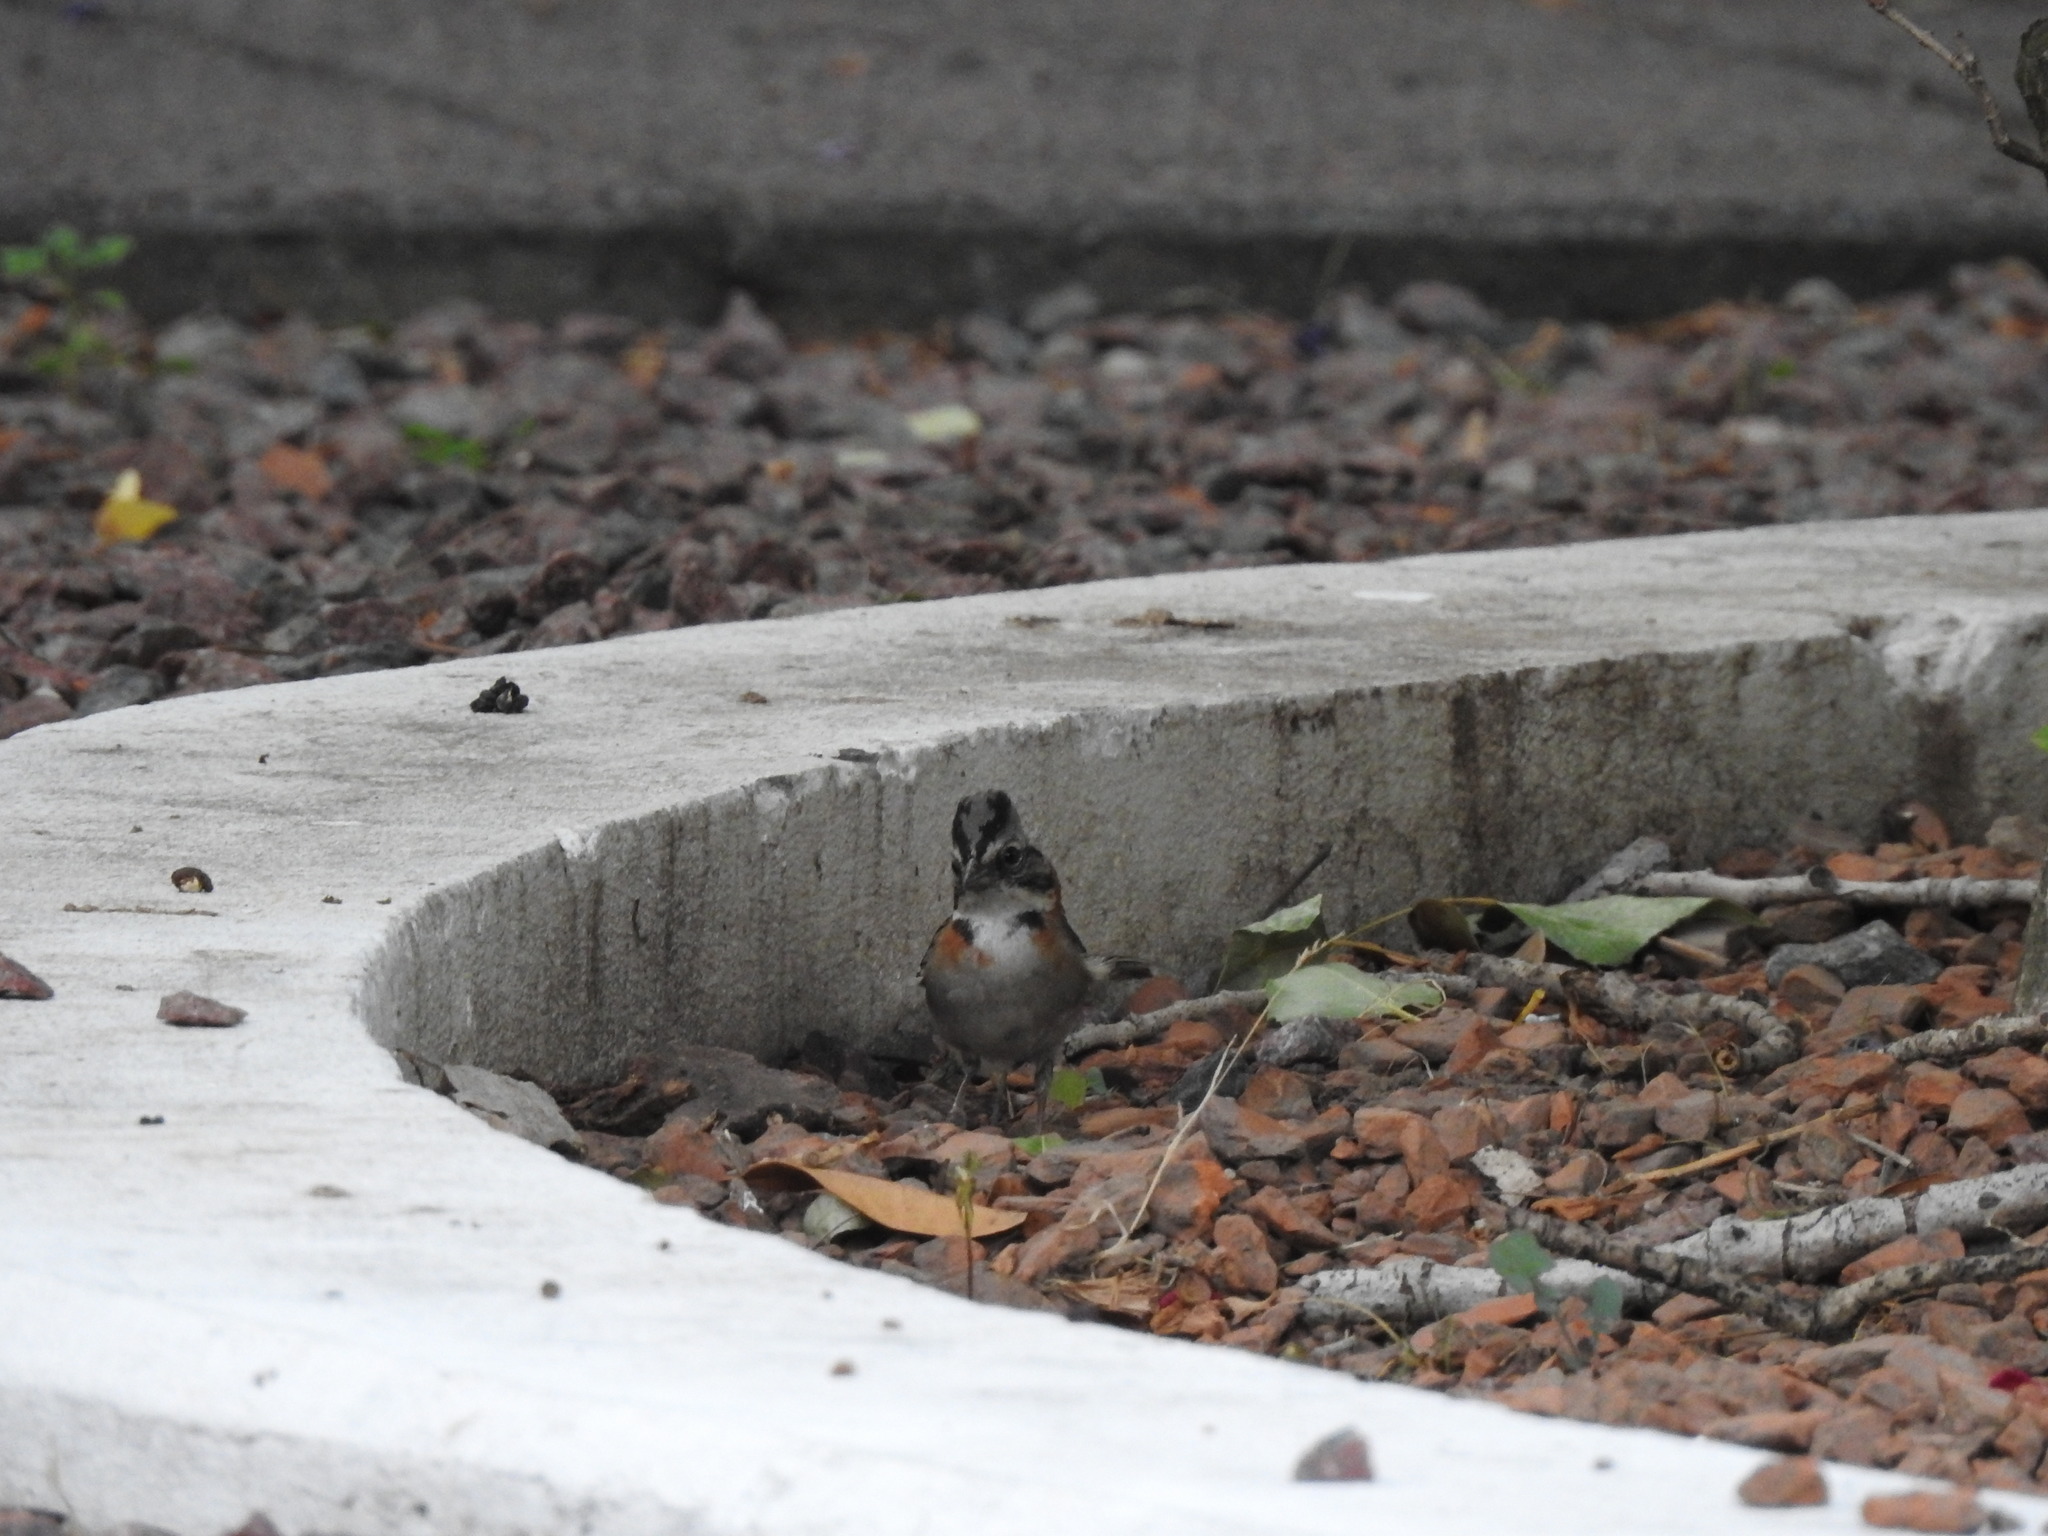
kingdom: Animalia
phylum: Chordata
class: Aves
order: Passeriformes
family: Passerellidae
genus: Zonotrichia
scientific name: Zonotrichia capensis
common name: Rufous-collared sparrow
